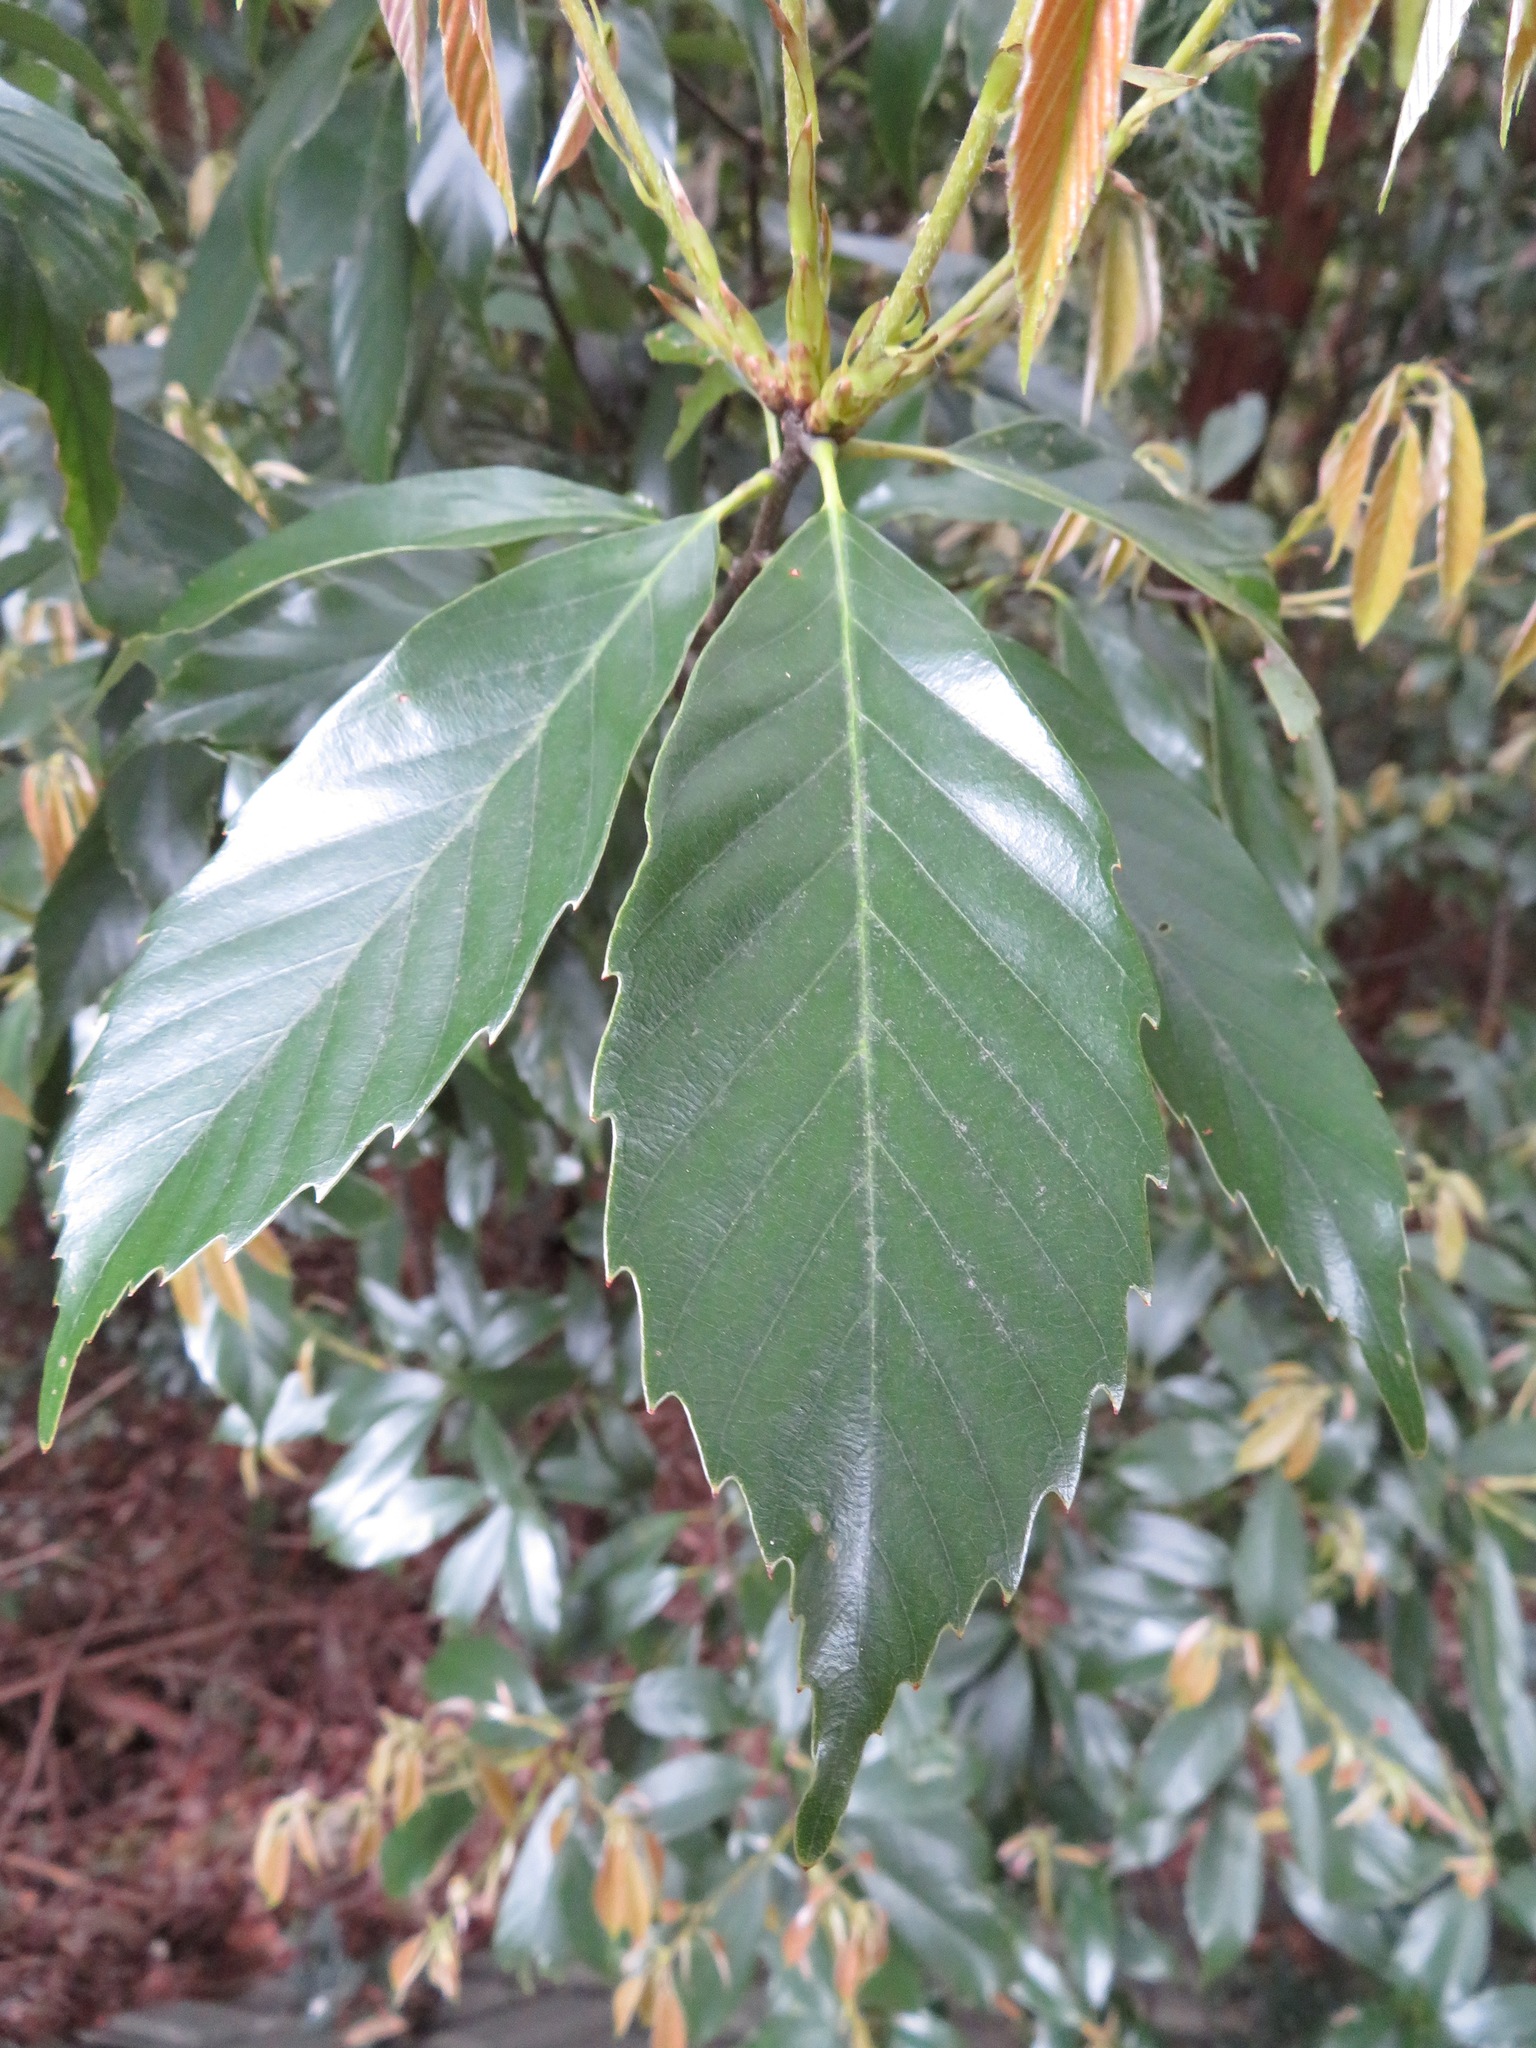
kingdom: Plantae
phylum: Tracheophyta
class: Magnoliopsida
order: Fagales
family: Fagaceae
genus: Quercus
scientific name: Quercus glauca
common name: Ring-cup oak
